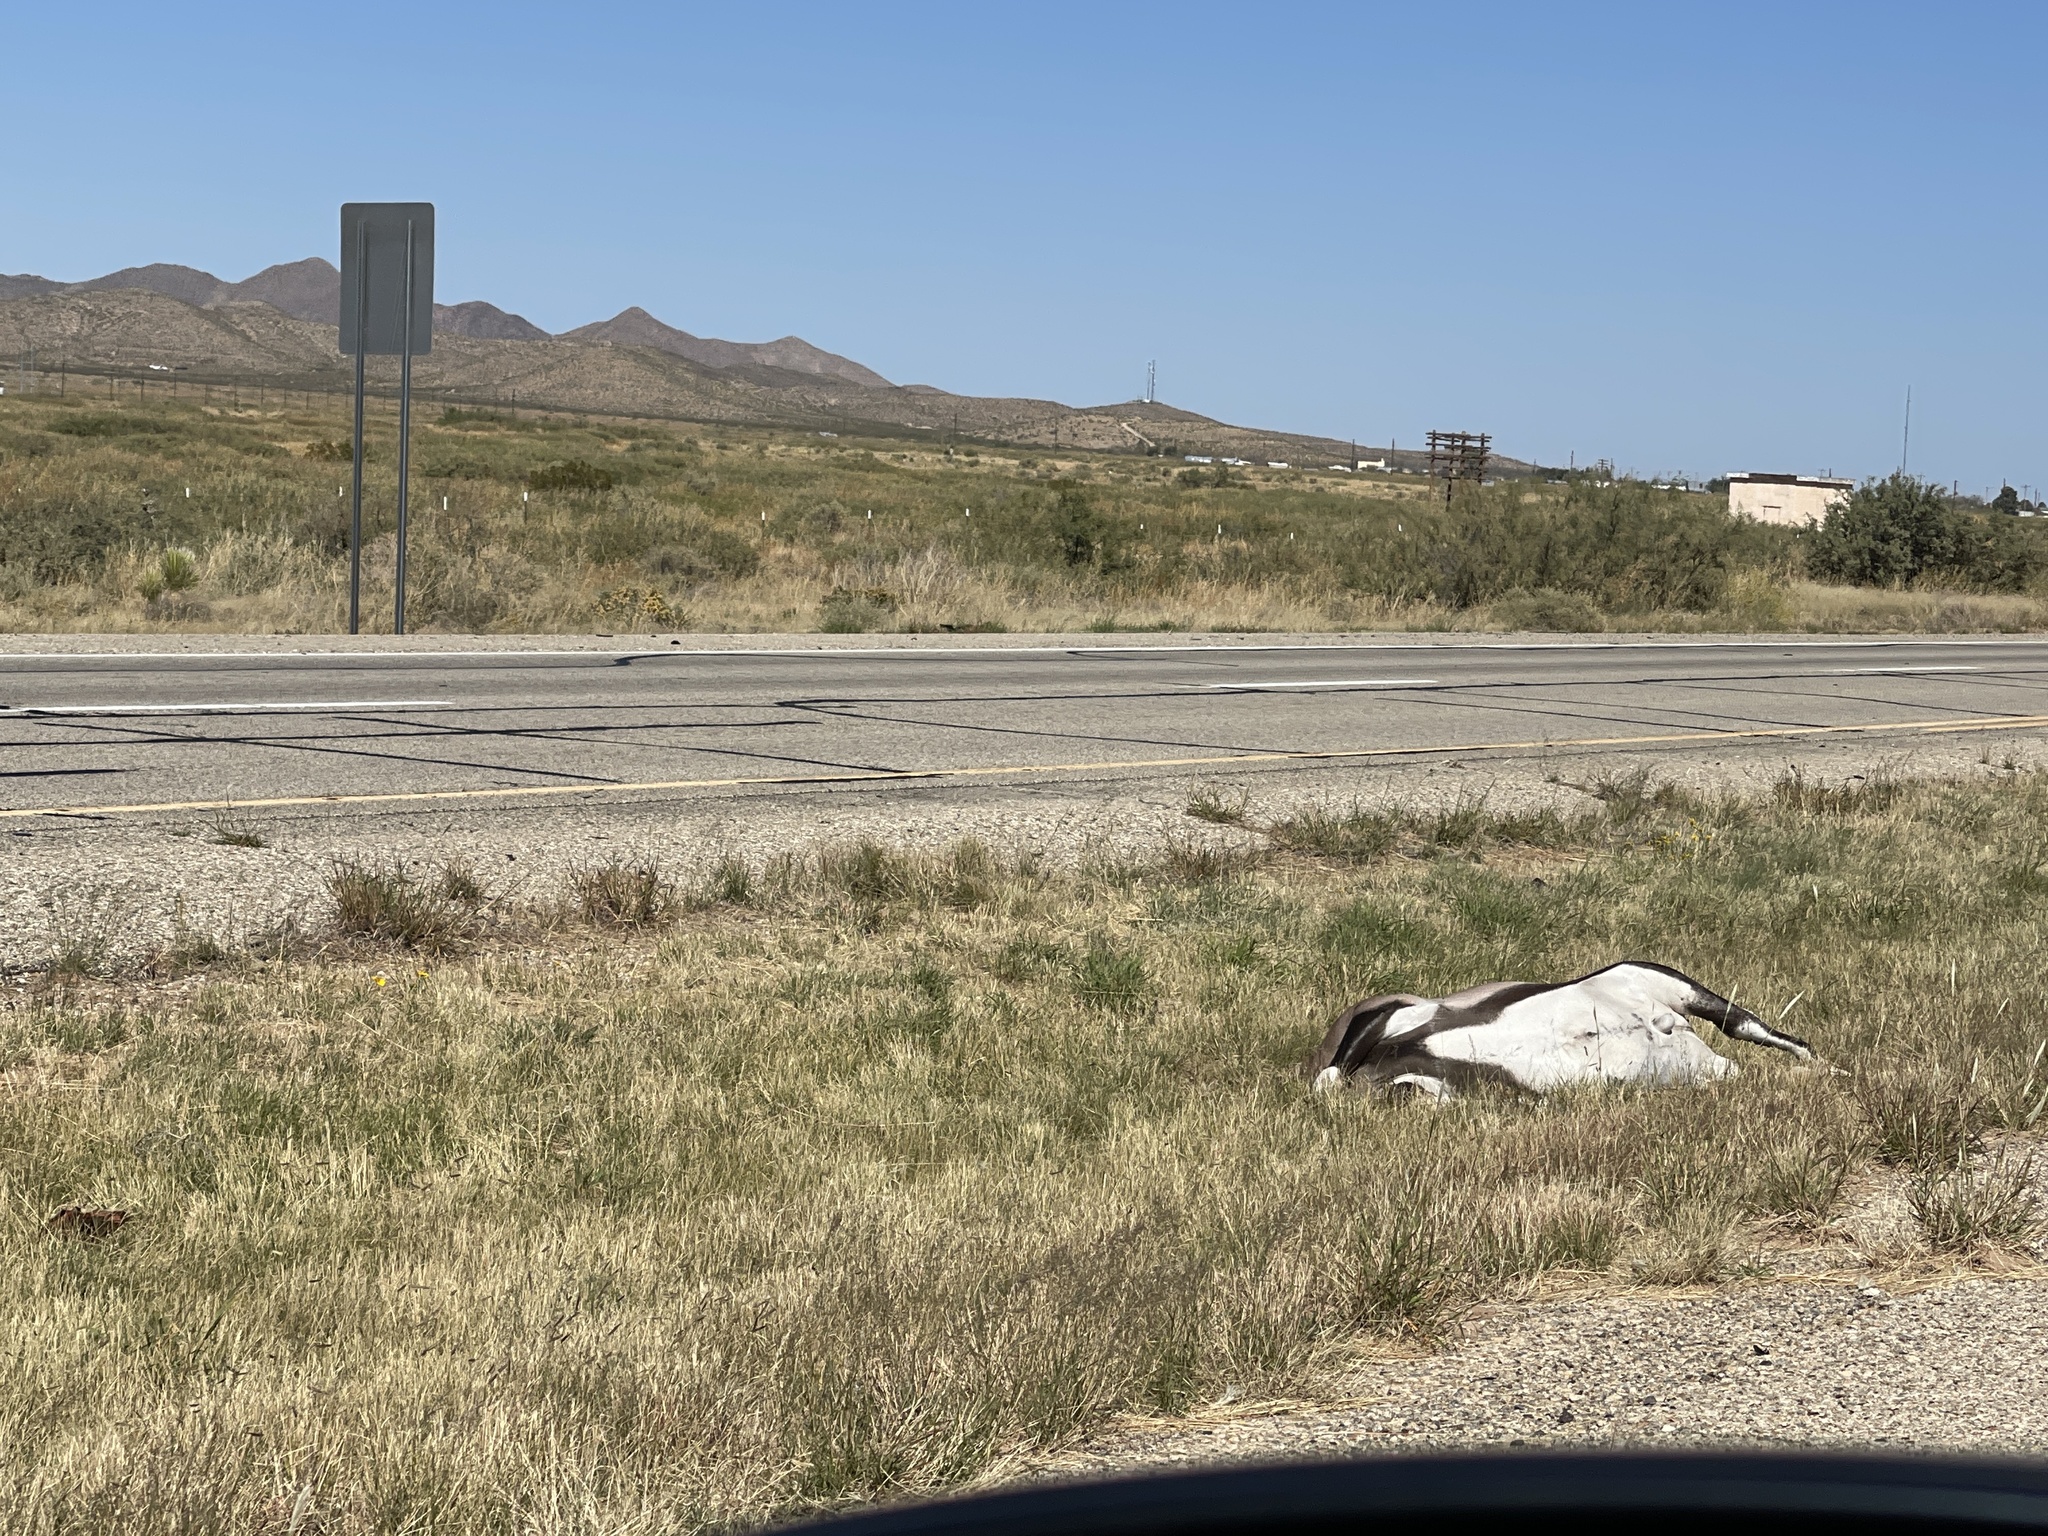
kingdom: Animalia
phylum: Chordata
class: Mammalia
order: Artiodactyla
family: Bovidae
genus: Oryx
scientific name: Oryx gazella
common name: Gemsbok
